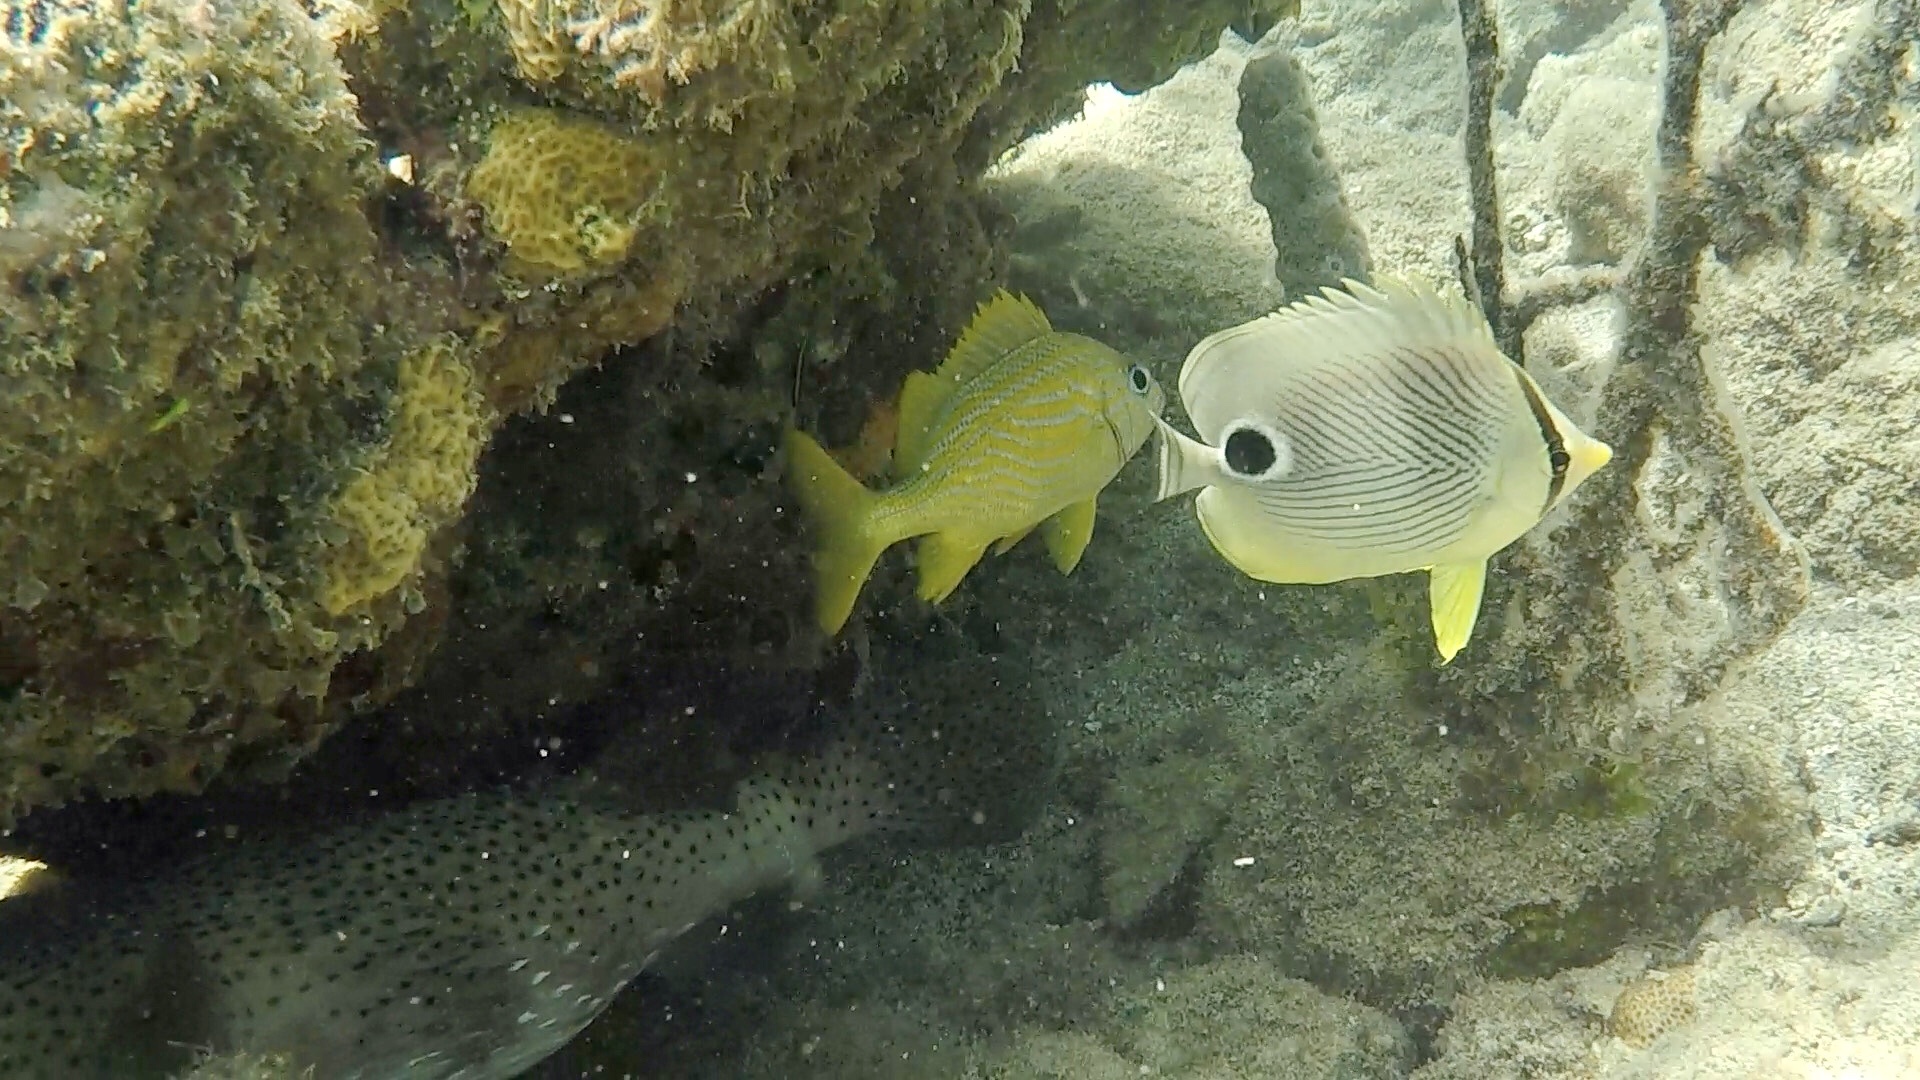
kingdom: Animalia
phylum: Chordata
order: Perciformes
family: Chaetodontidae
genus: Chaetodon
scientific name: Chaetodon capistratus
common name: Kete
